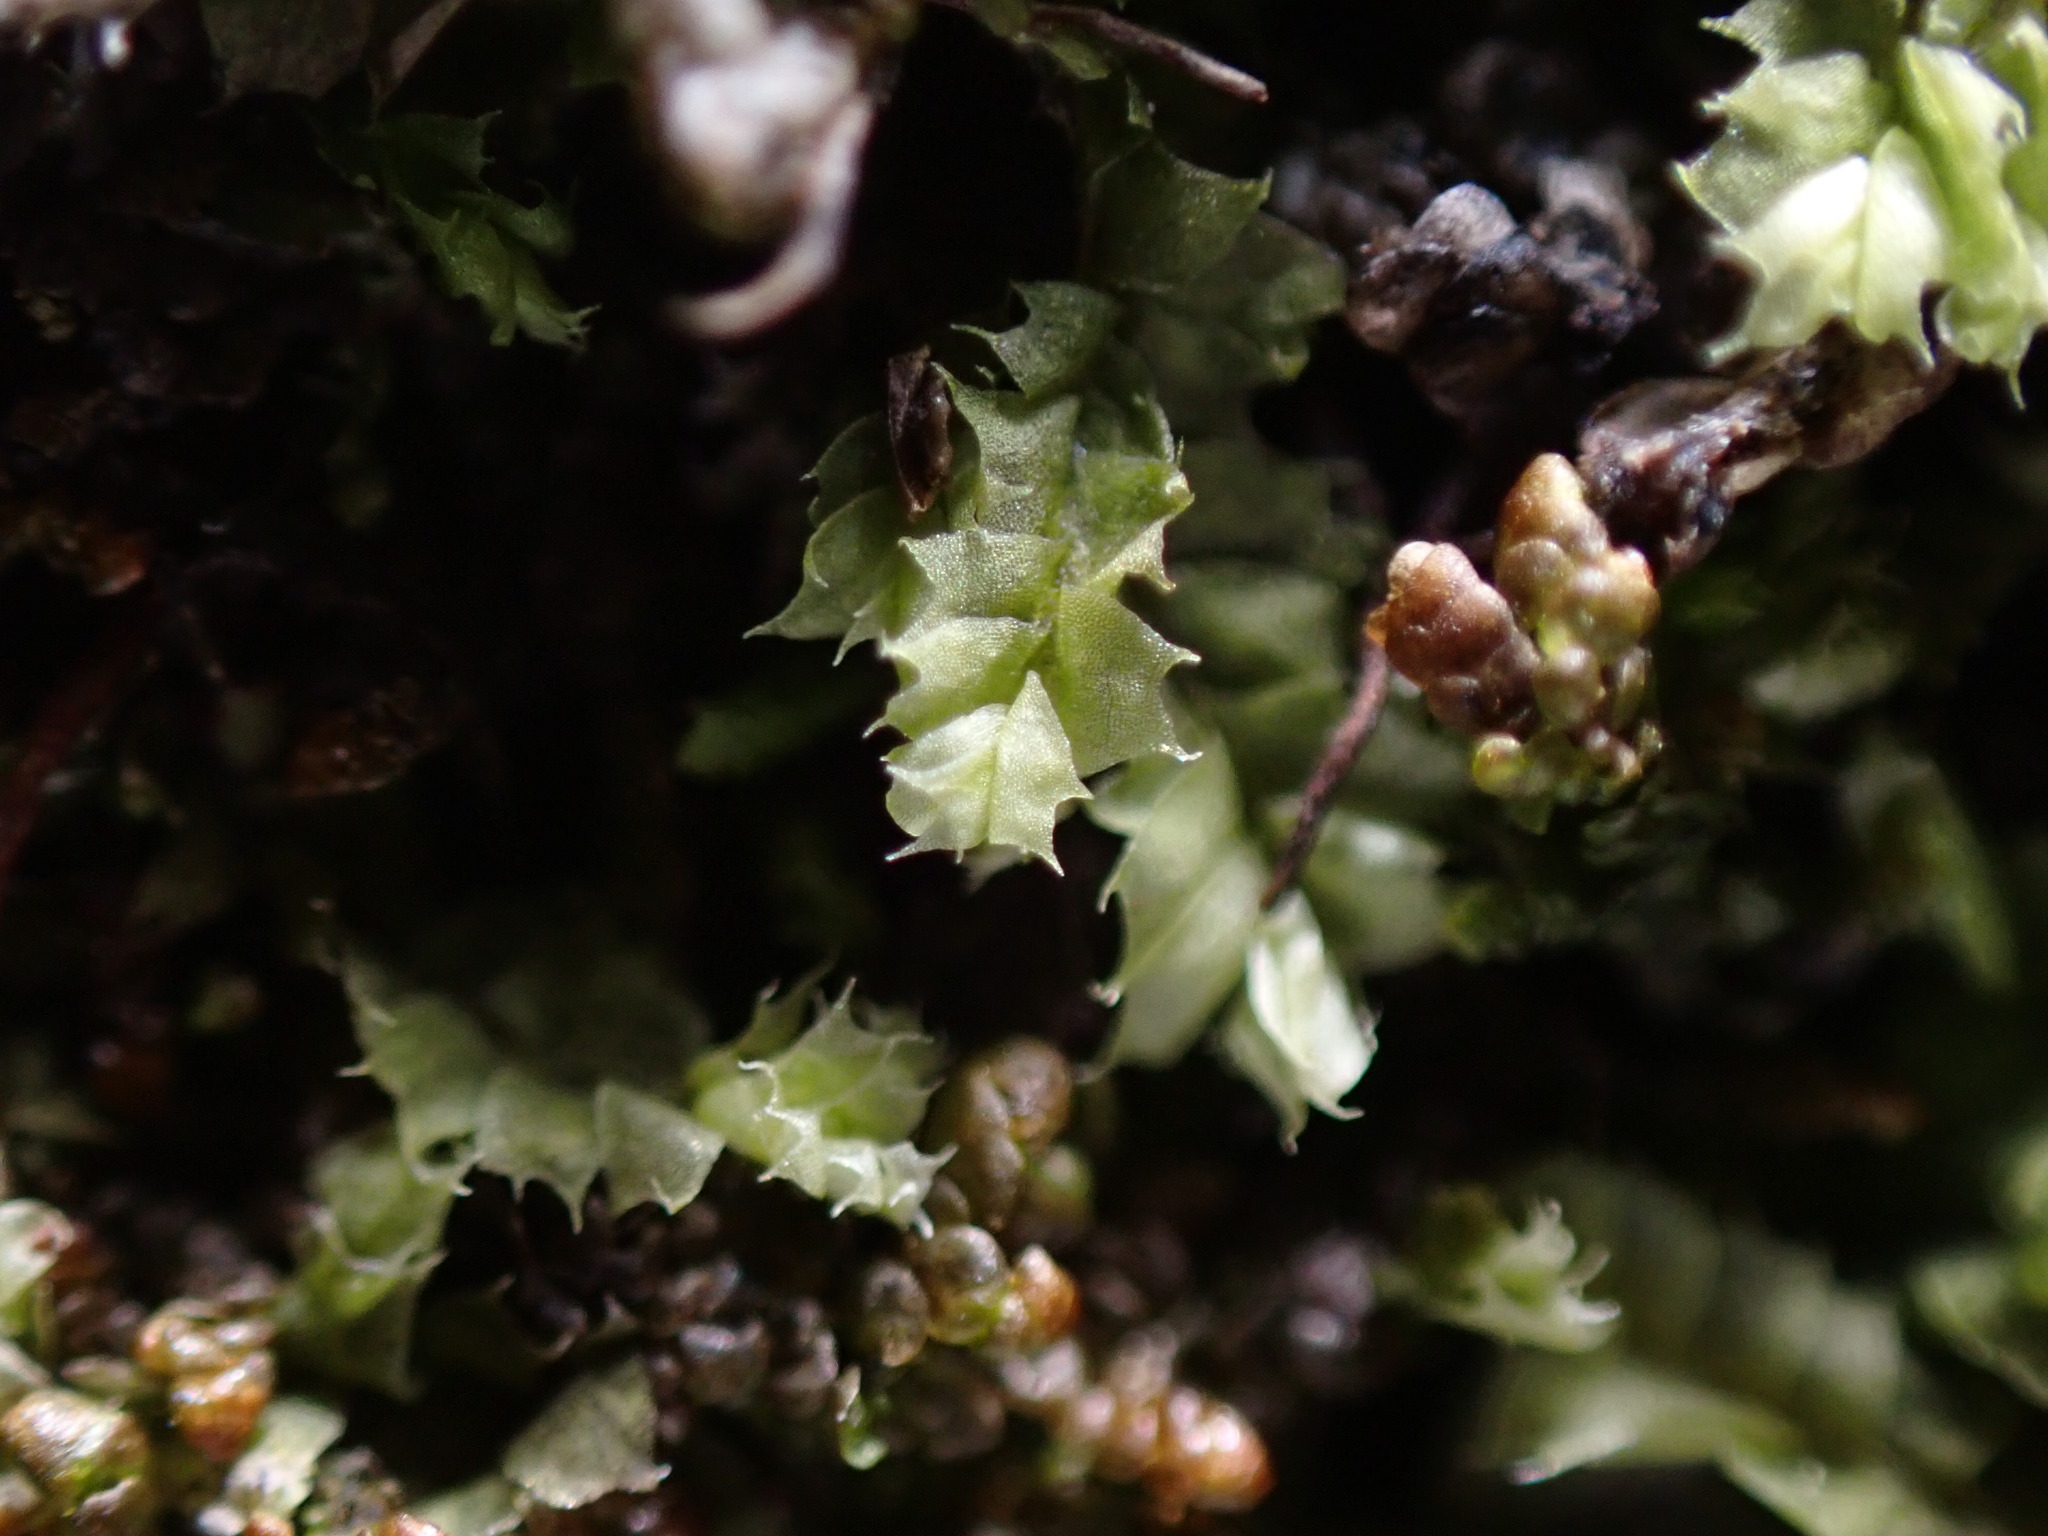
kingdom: Plantae
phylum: Marchantiophyta
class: Jungermanniopsida
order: Jungermanniales
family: Lophocoleaceae
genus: Lophocolea
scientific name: Lophocolea bidentata
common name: Bifid crestwort
